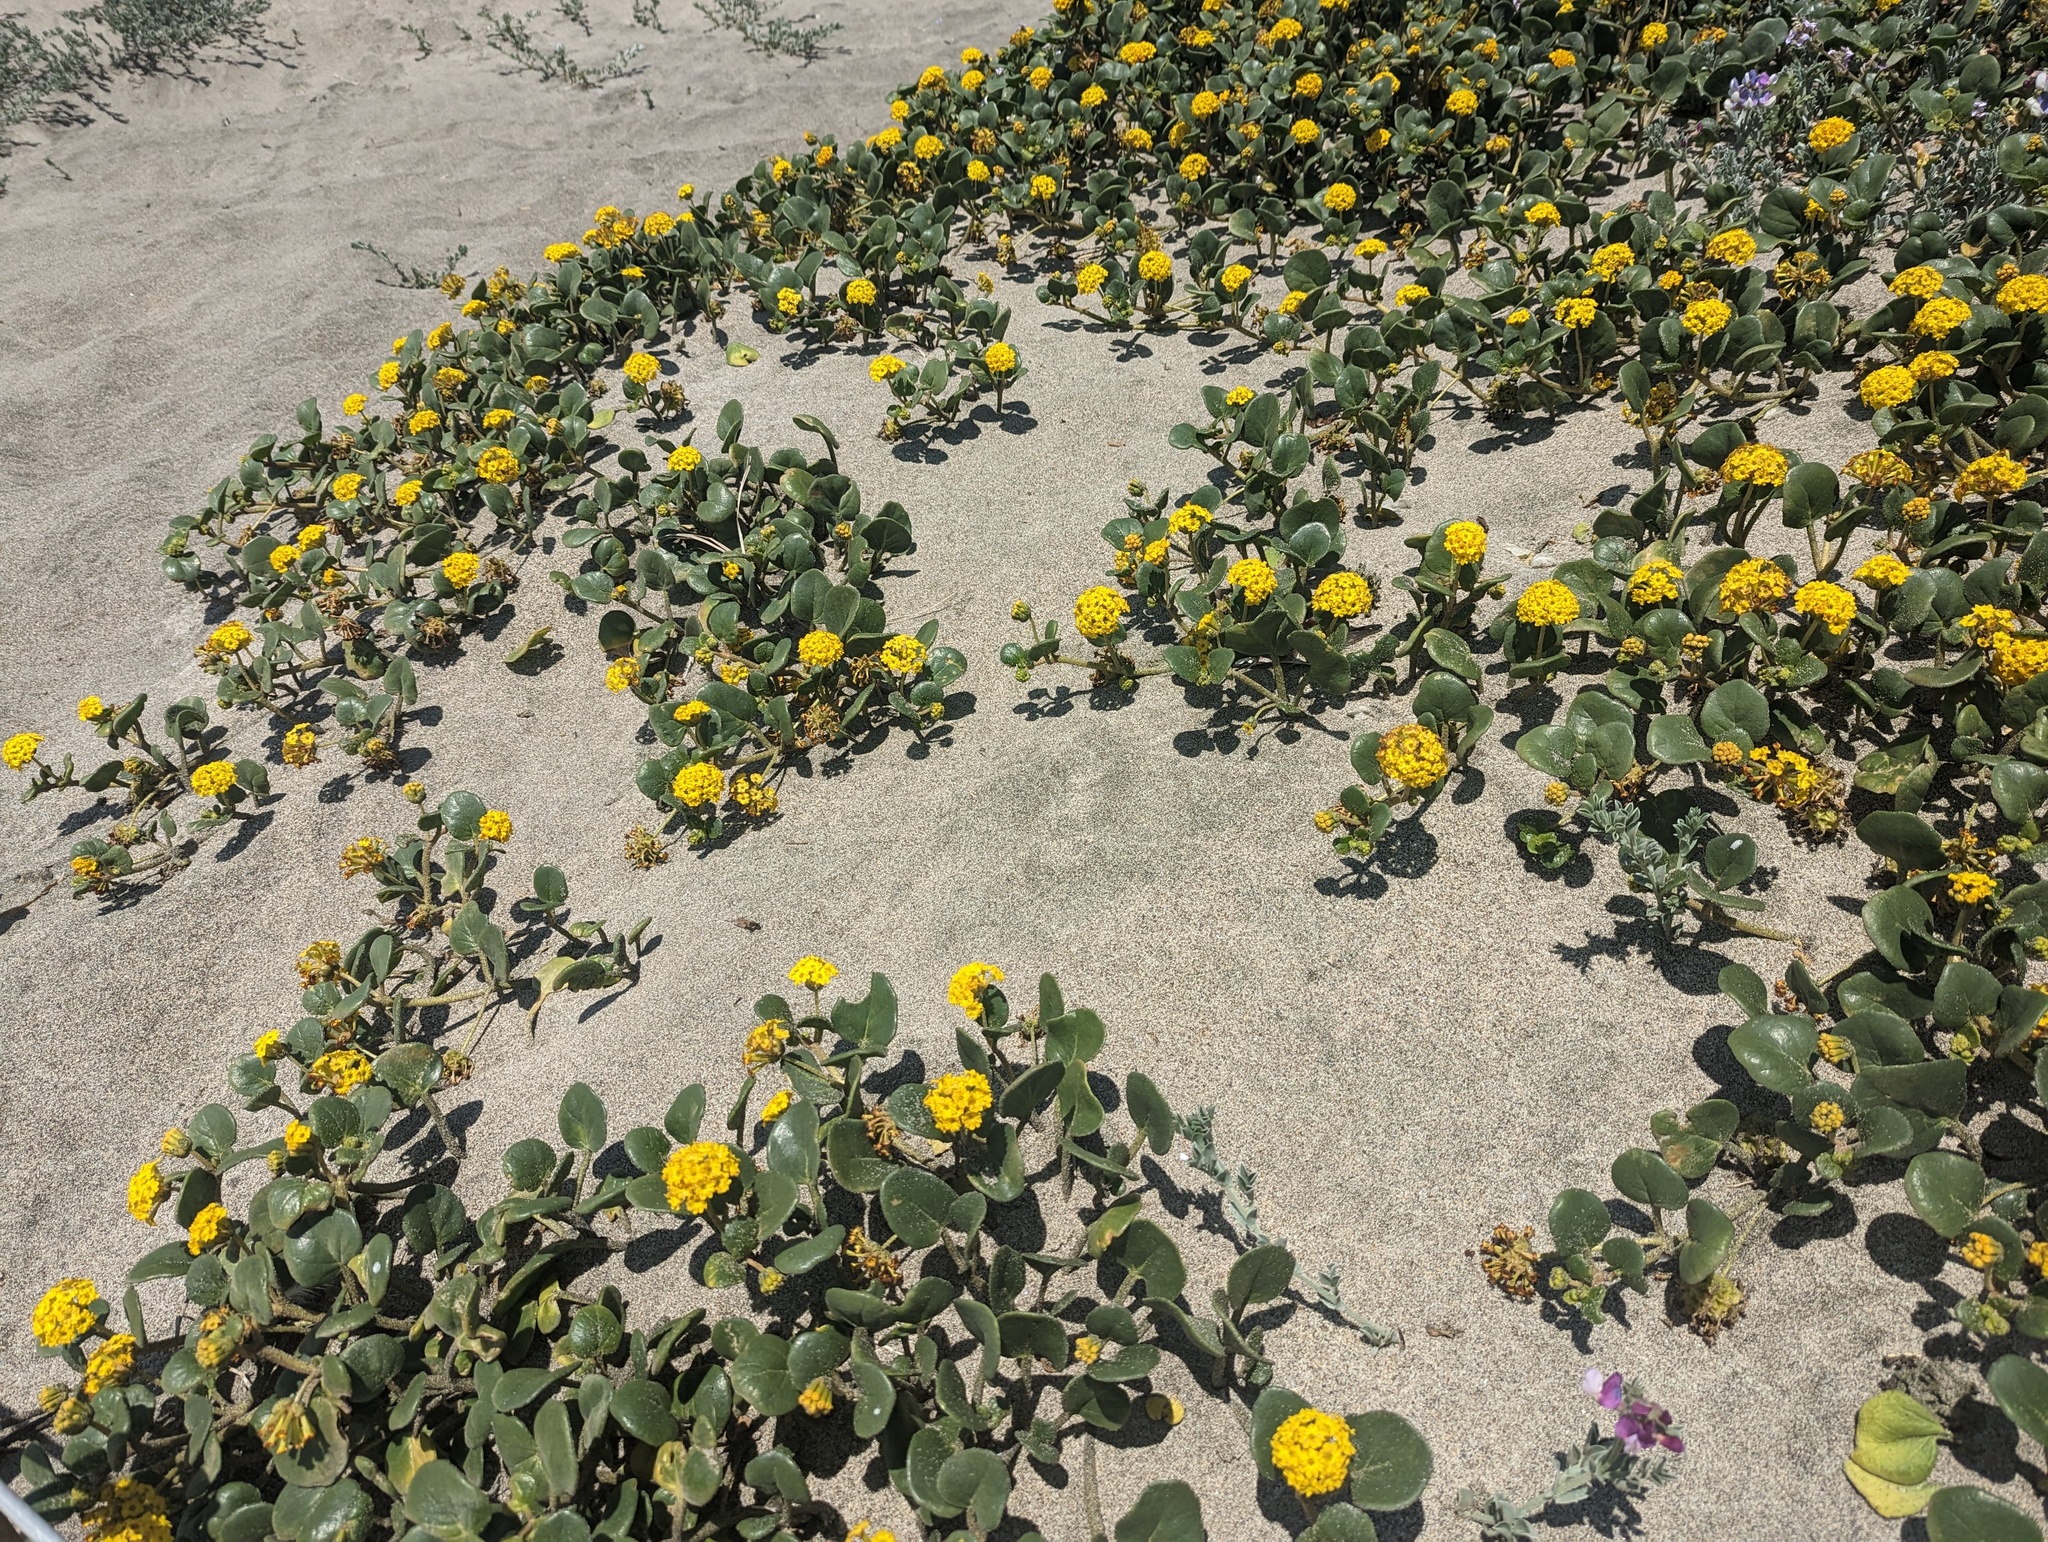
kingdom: Plantae
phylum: Tracheophyta
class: Magnoliopsida
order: Caryophyllales
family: Nyctaginaceae
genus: Abronia
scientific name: Abronia latifolia
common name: Yellow sand-verbena
